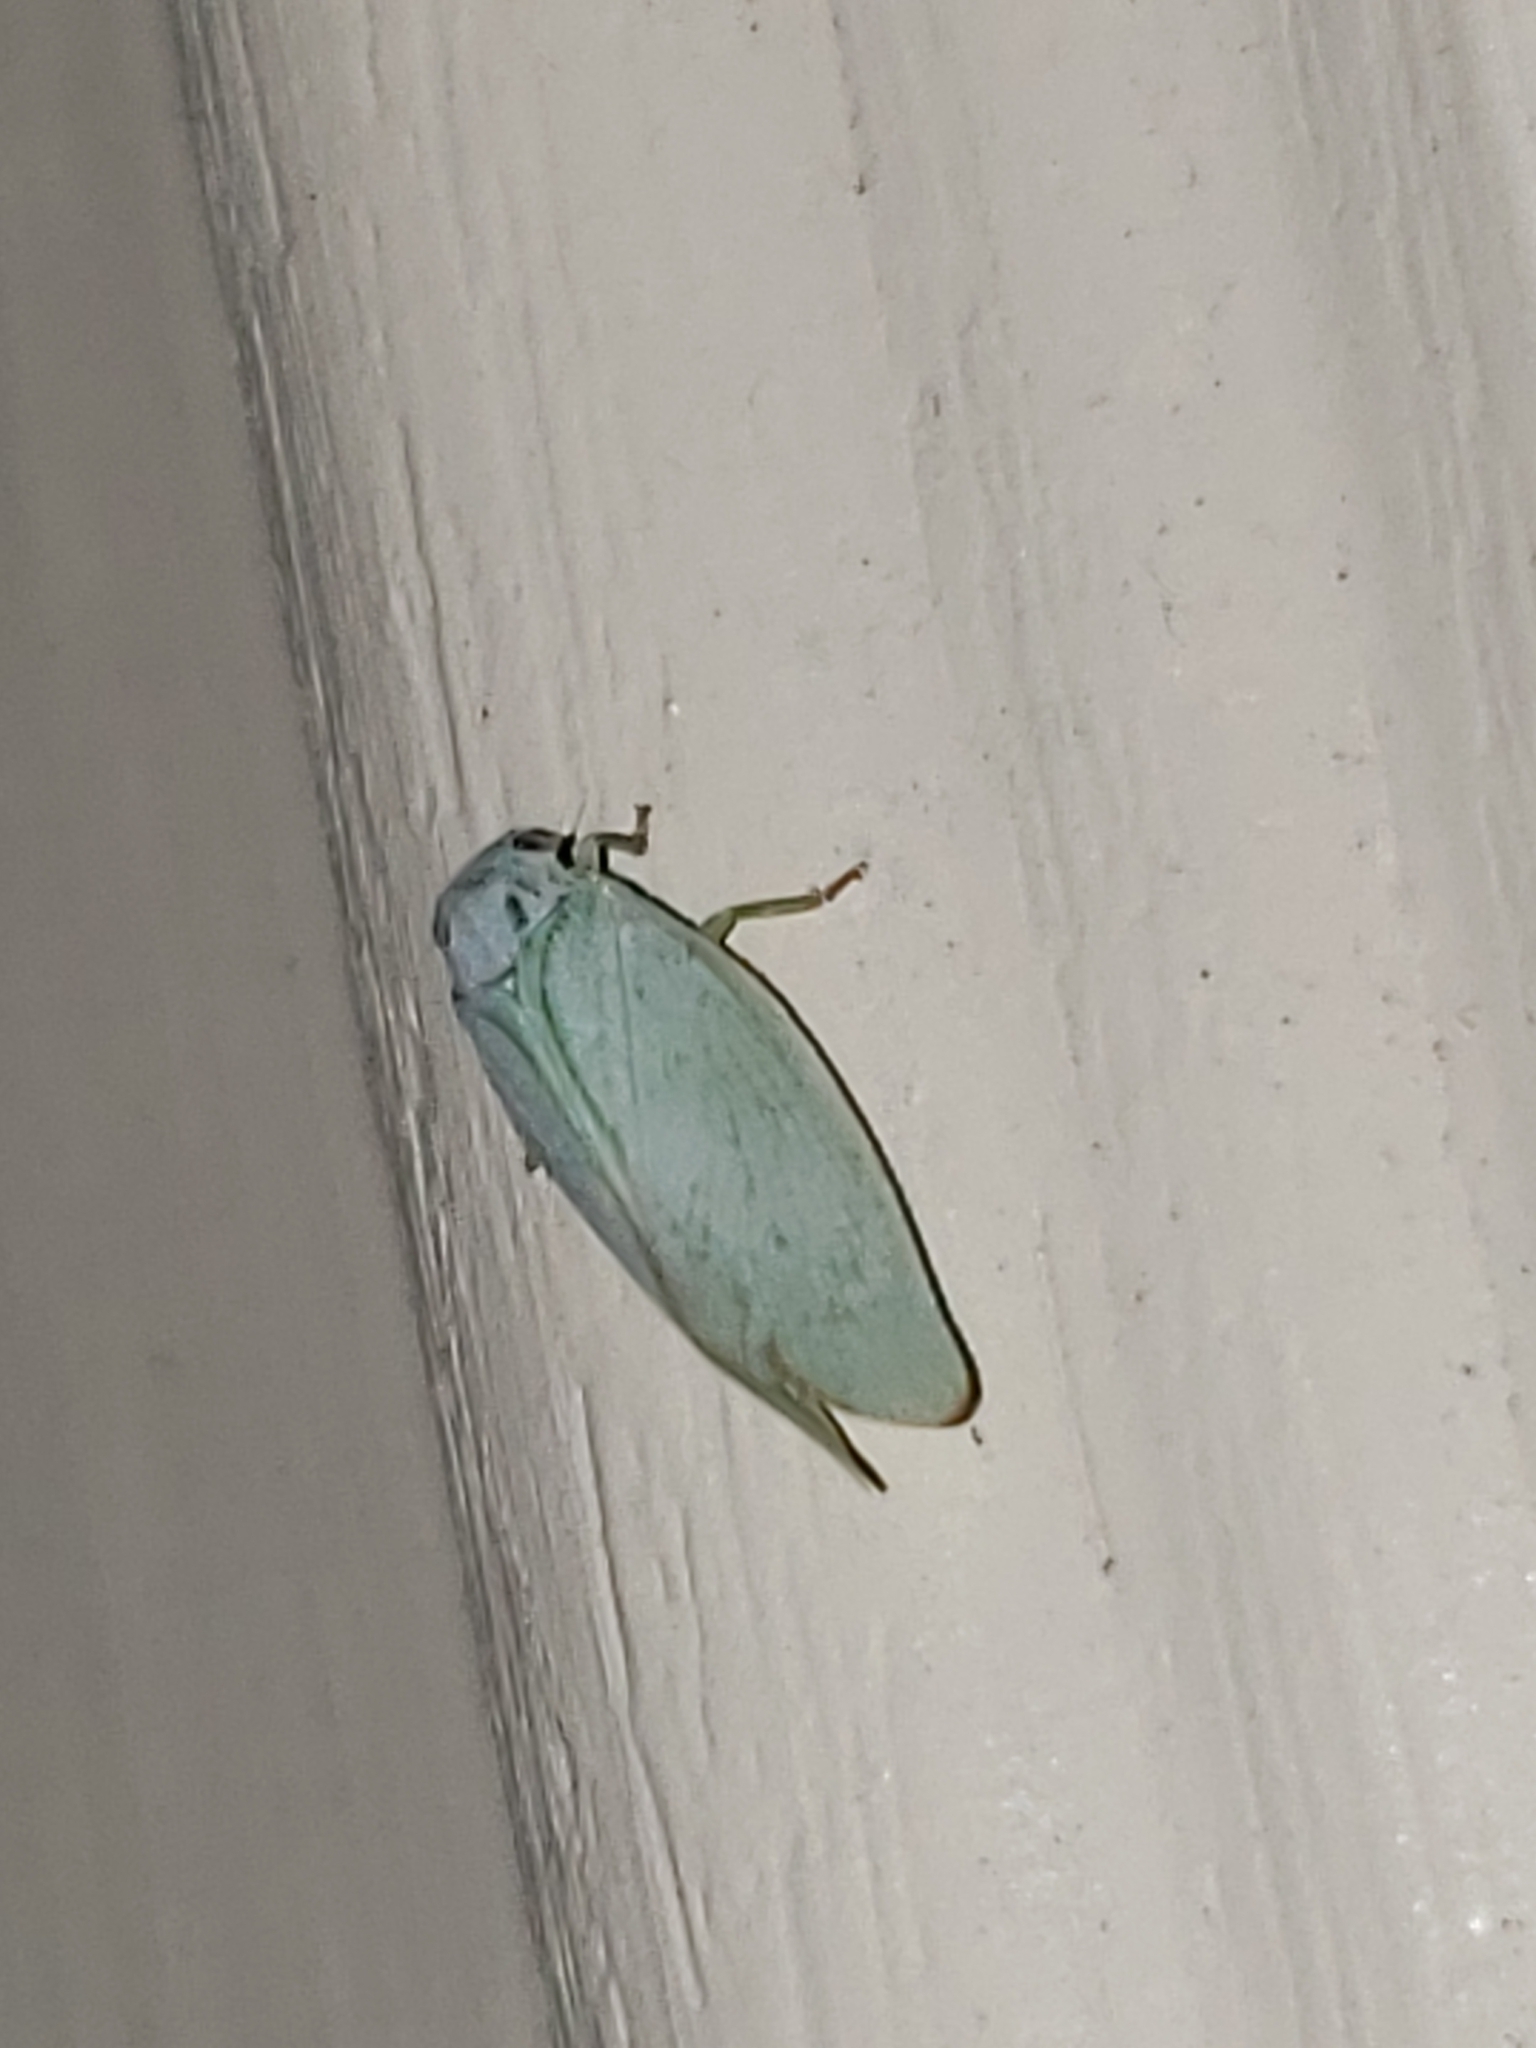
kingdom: Animalia
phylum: Arthropoda
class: Insecta
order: Hemiptera
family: Flatidae
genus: Flatormenis
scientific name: Flatormenis proxima
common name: Northern flatid planthopper
